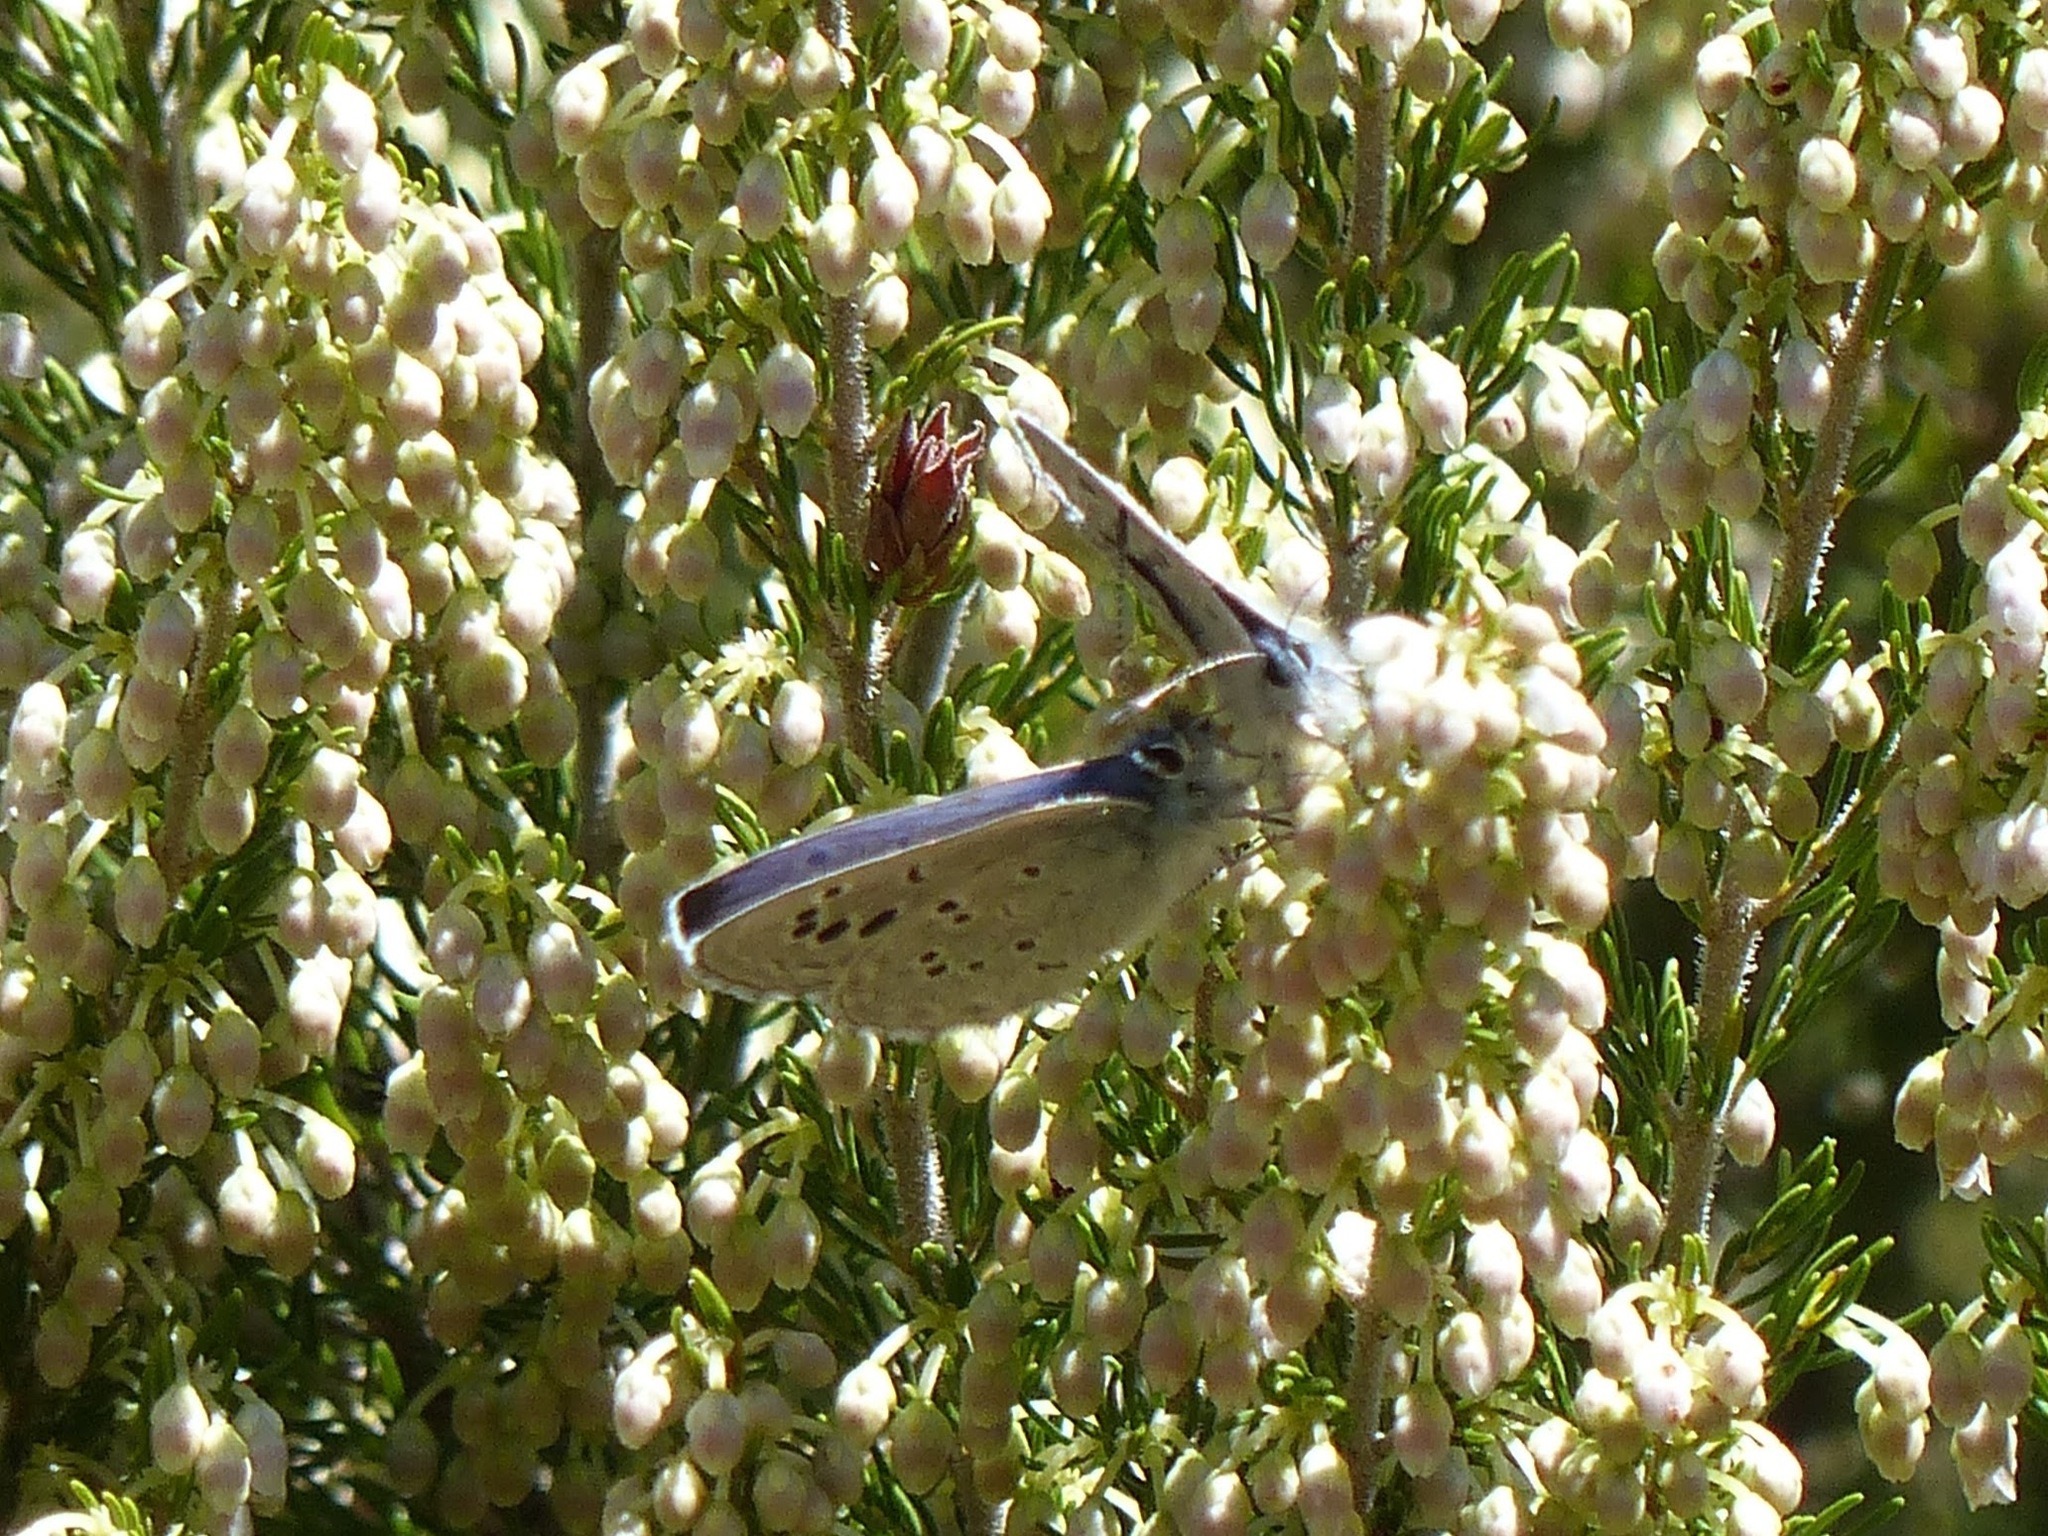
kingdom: Animalia
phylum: Arthropoda
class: Insecta
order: Lepidoptera
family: Lycaenidae
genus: Glaucopsyche
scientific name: Glaucopsyche melanops
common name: Black-eyed blue
